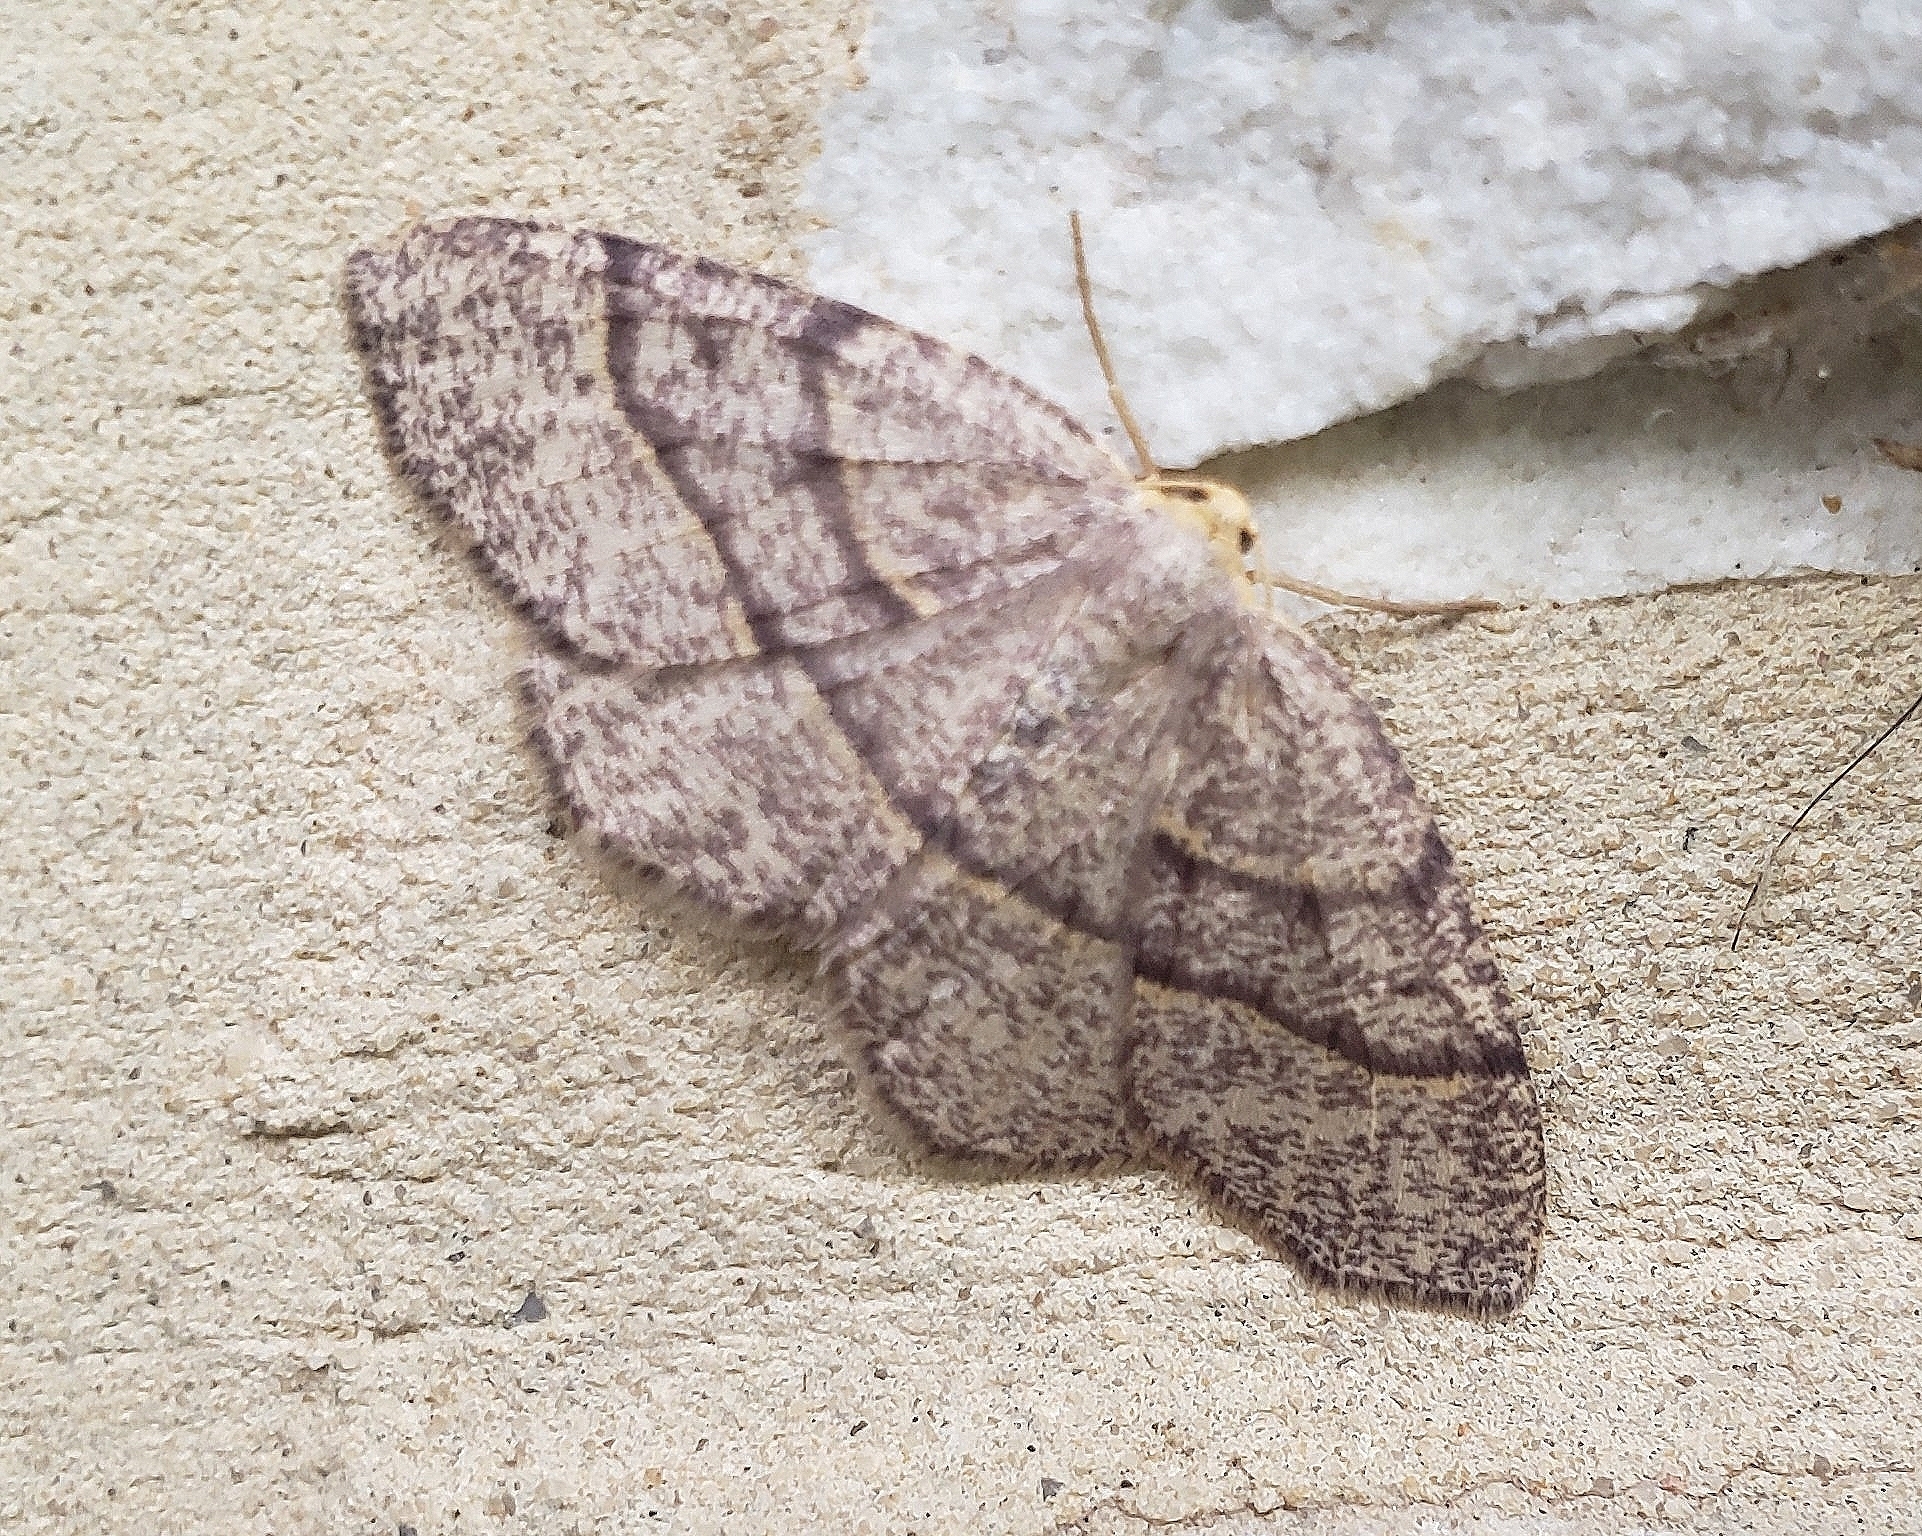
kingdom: Animalia
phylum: Arthropoda
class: Insecta
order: Lepidoptera
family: Geometridae
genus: Lambdina
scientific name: Lambdina fervidaria
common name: Curve-lined looper moth
